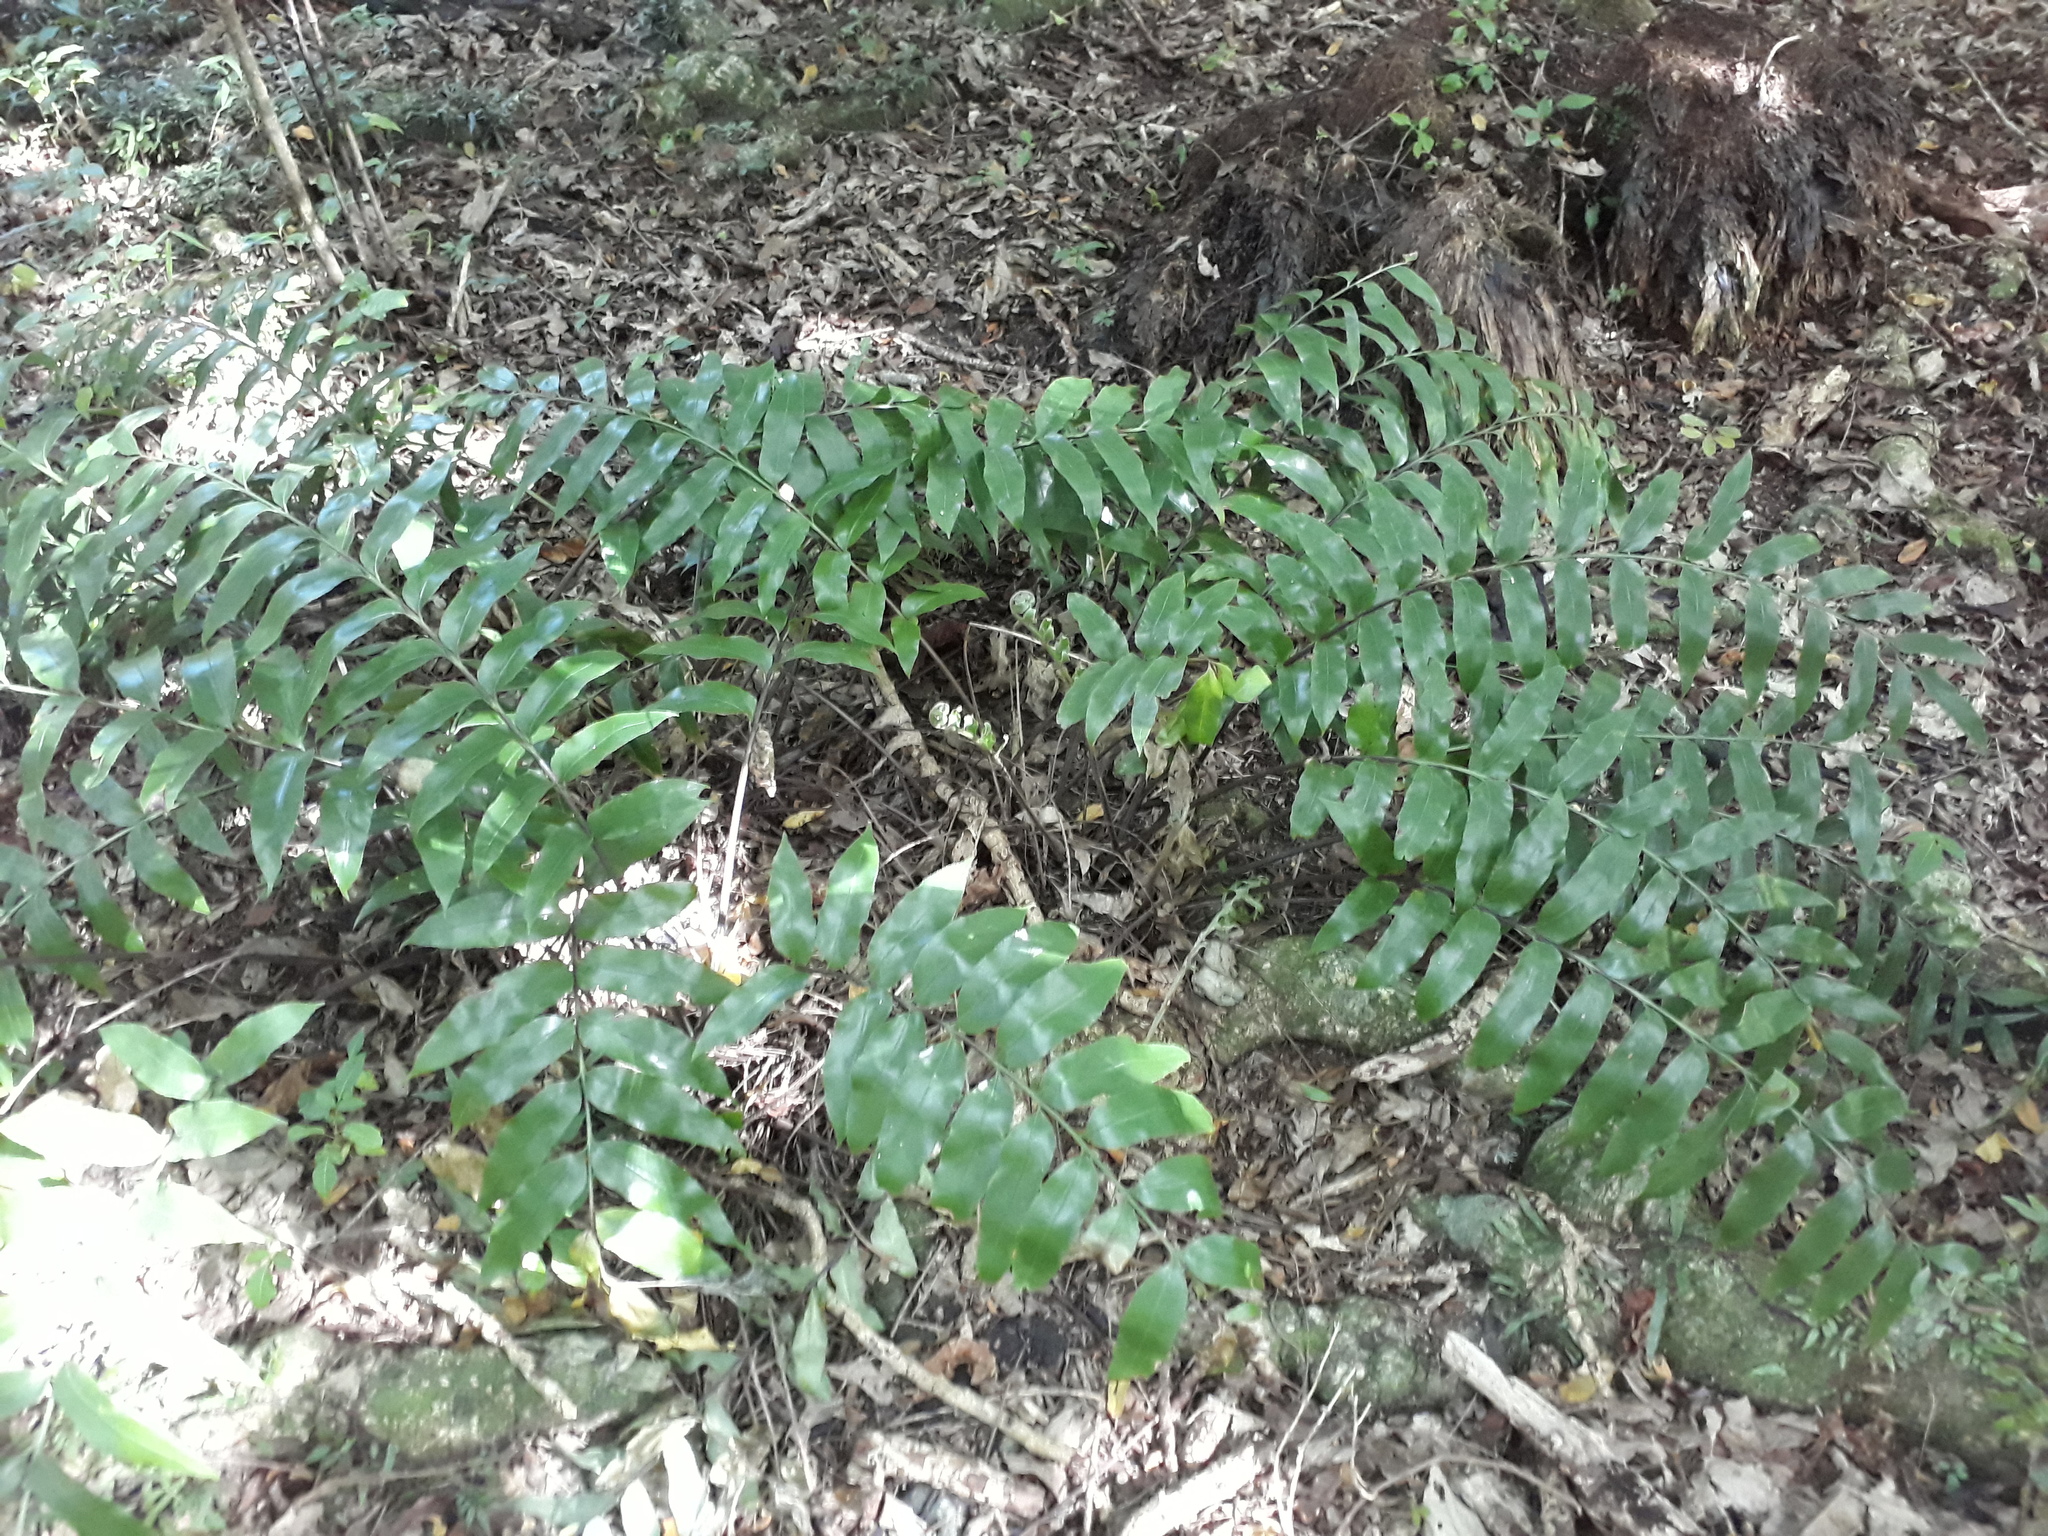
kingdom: Plantae
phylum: Tracheophyta
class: Polypodiopsida
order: Polypodiales
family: Aspleniaceae
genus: Asplenium
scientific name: Asplenium oblongifolium
